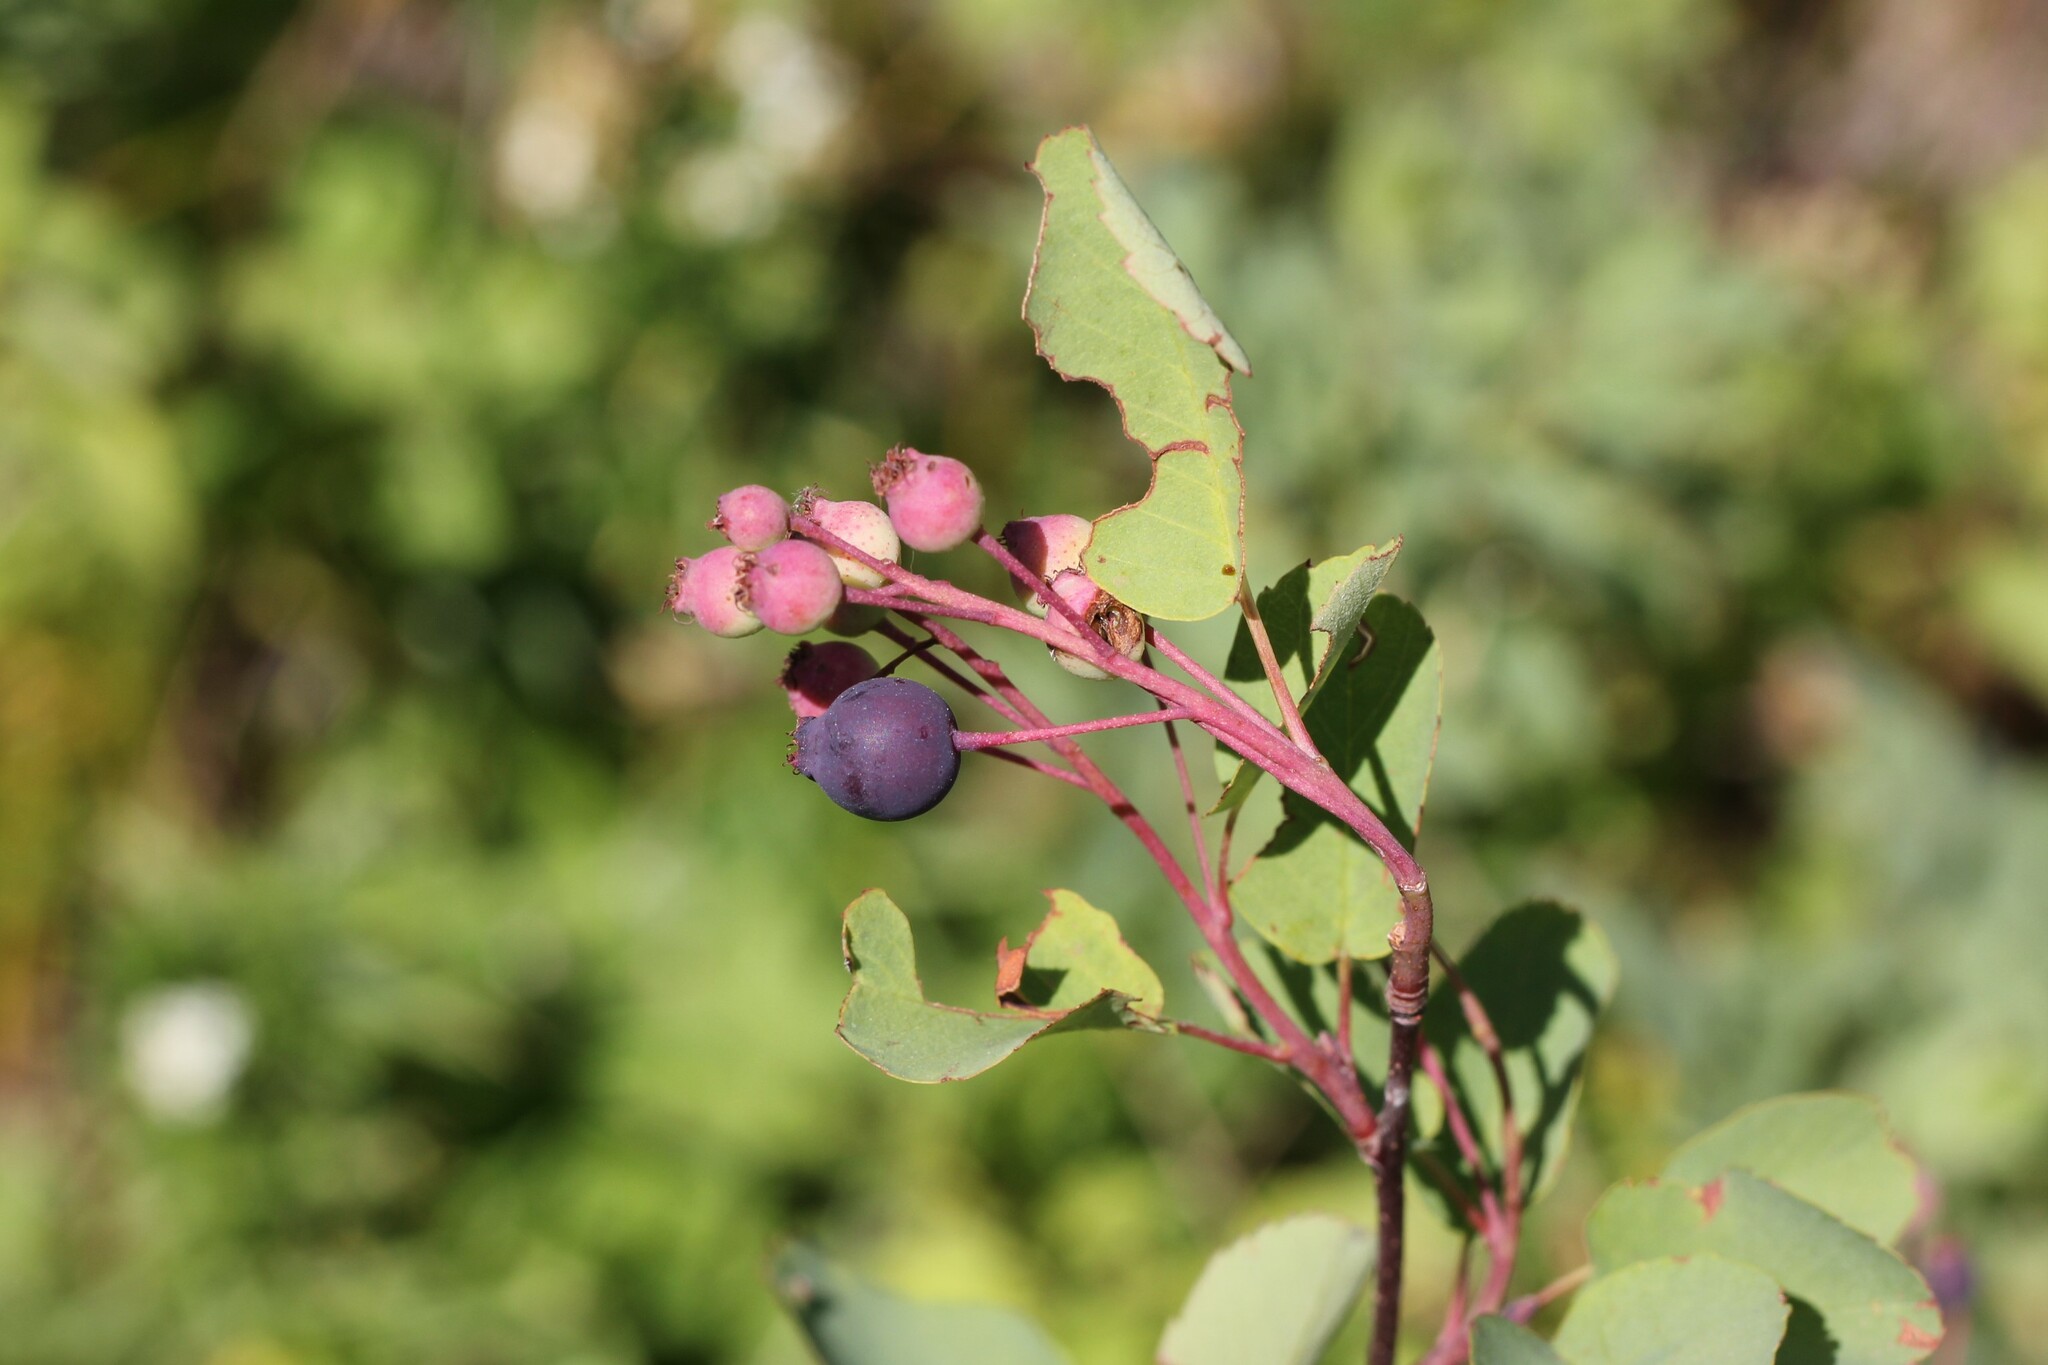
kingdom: Plantae
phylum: Tracheophyta
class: Magnoliopsida
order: Rosales
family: Rosaceae
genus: Amelanchier
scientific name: Amelanchier alnifolia
